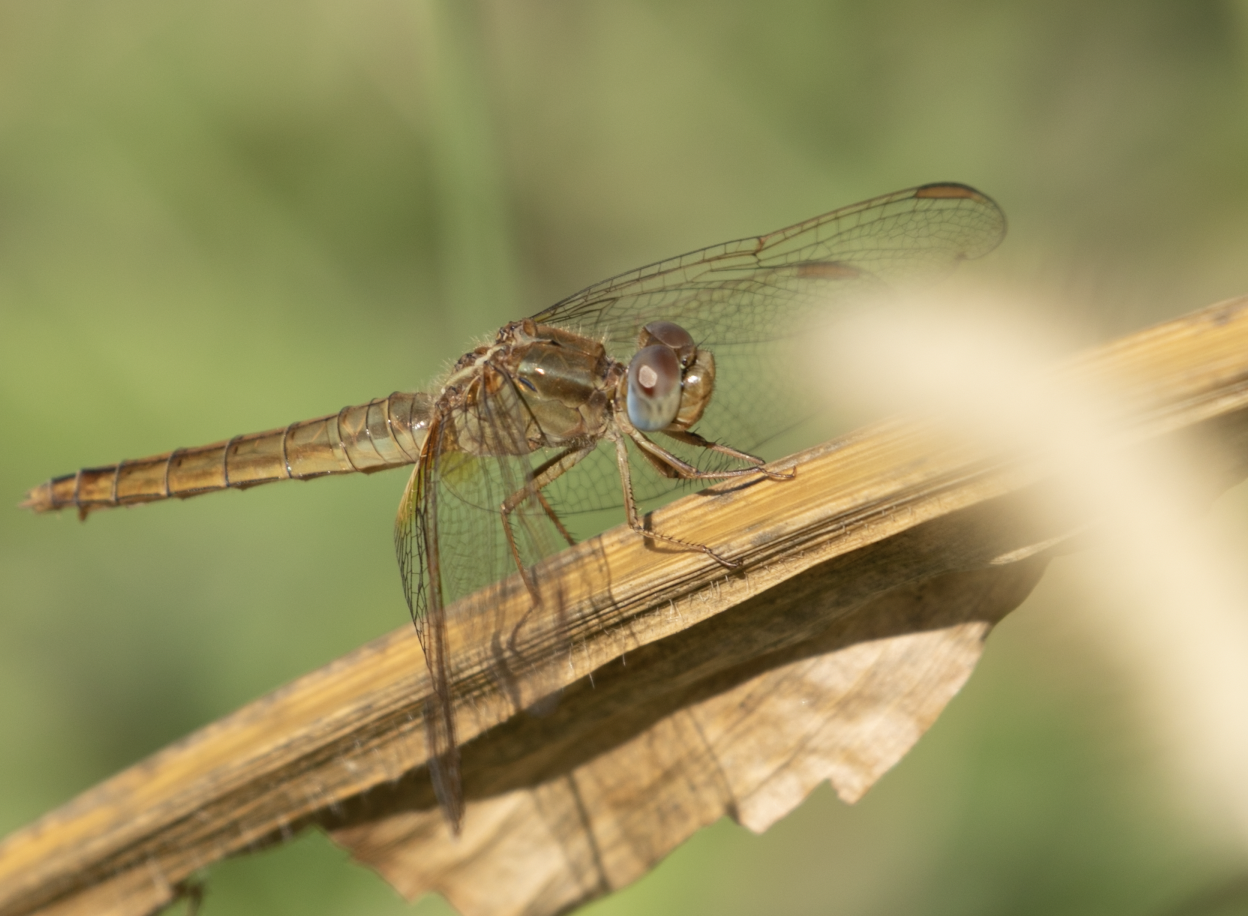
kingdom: Animalia
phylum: Arthropoda
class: Insecta
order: Odonata
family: Libellulidae
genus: Crocothemis
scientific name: Crocothemis erythraea
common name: Scarlet dragonfly
